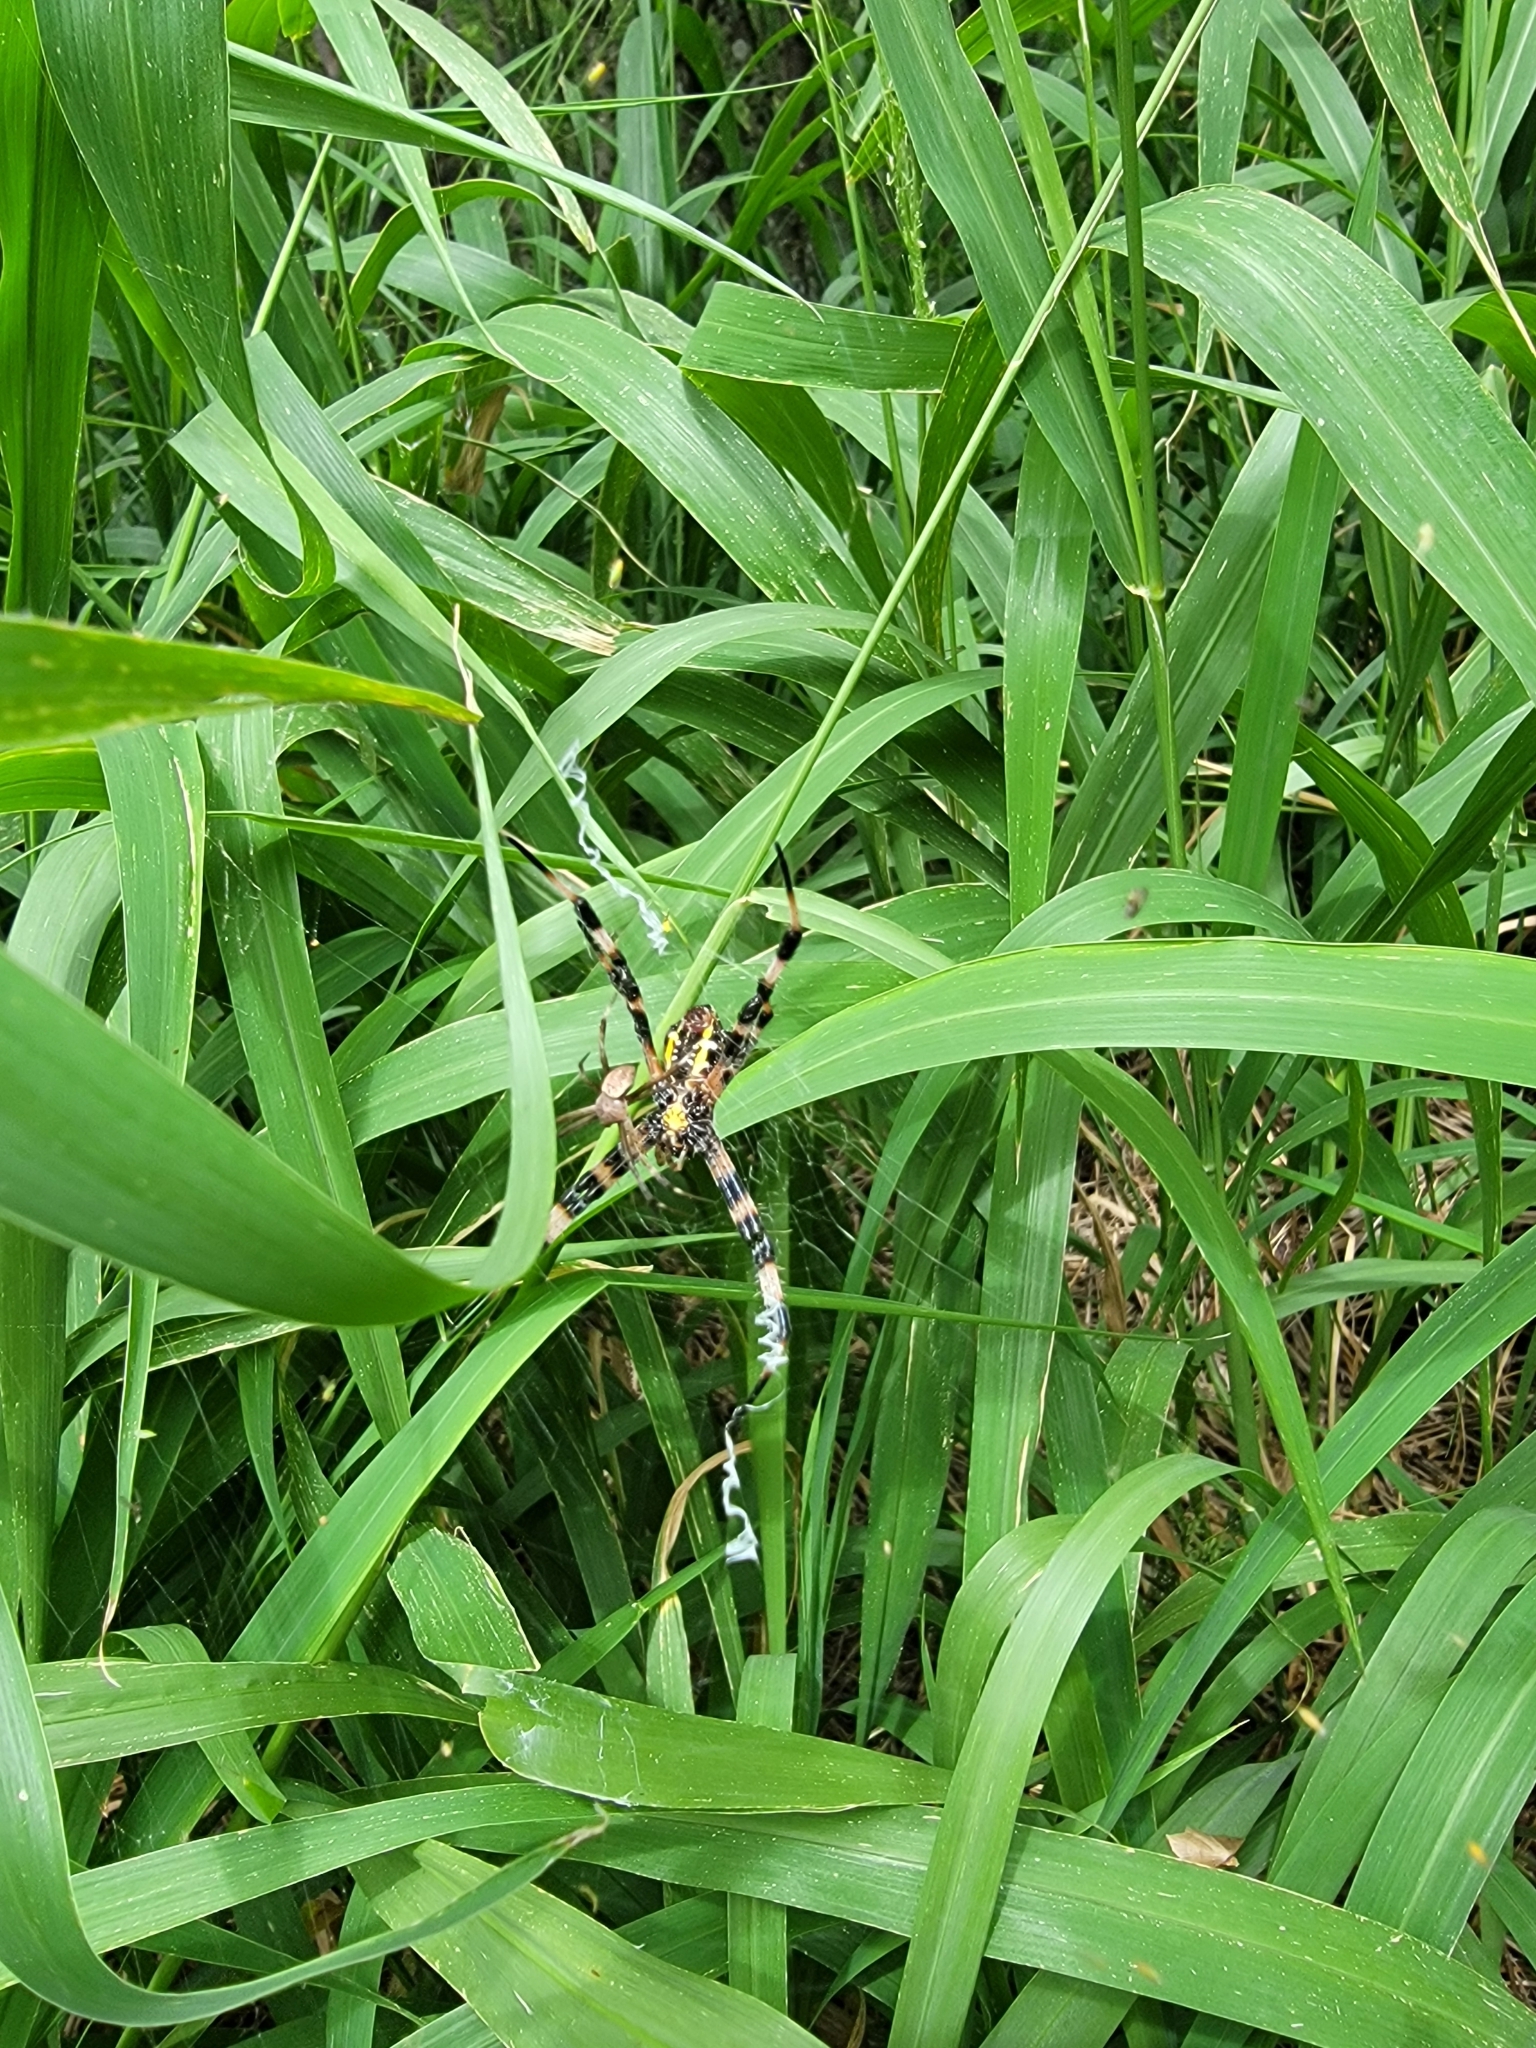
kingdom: Animalia
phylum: Arthropoda
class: Arachnida
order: Araneae
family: Araneidae
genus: Argiope
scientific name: Argiope appensa
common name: Garden spider
